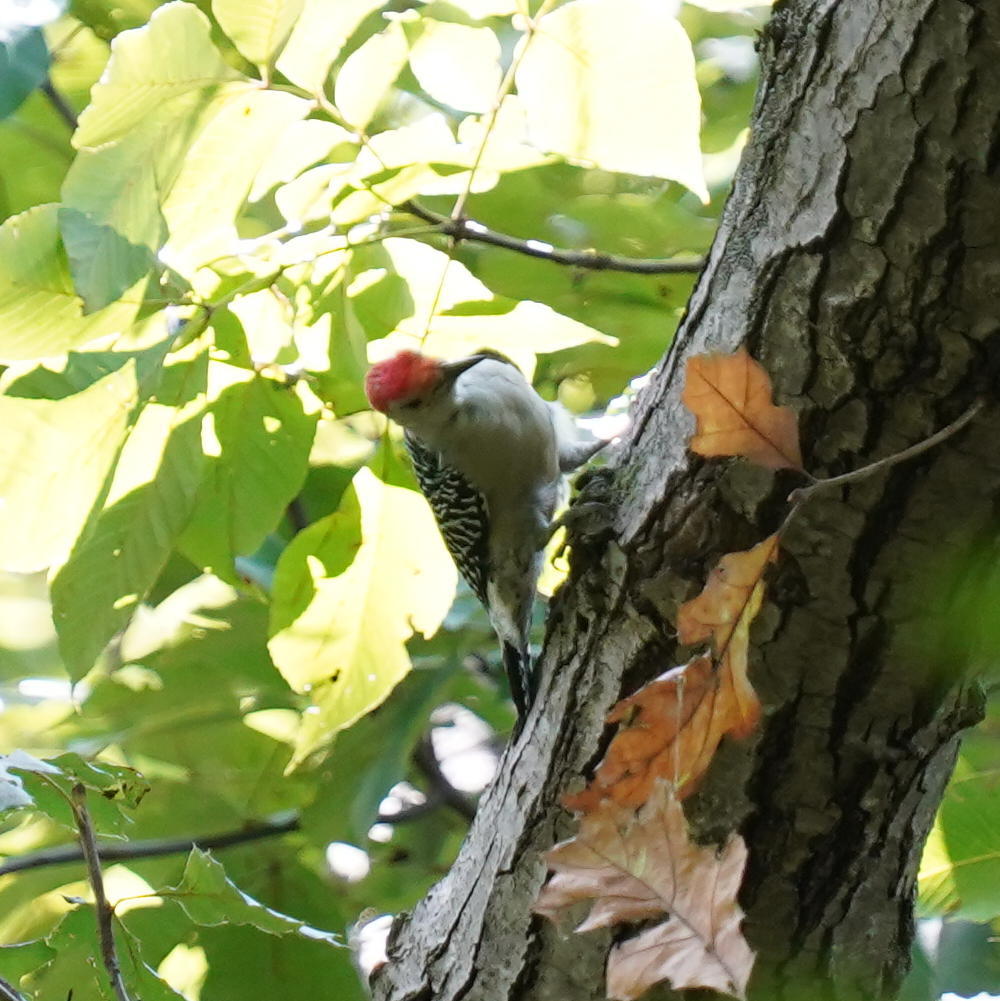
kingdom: Animalia
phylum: Chordata
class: Aves
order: Piciformes
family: Picidae
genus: Melanerpes
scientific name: Melanerpes carolinus
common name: Red-bellied woodpecker
